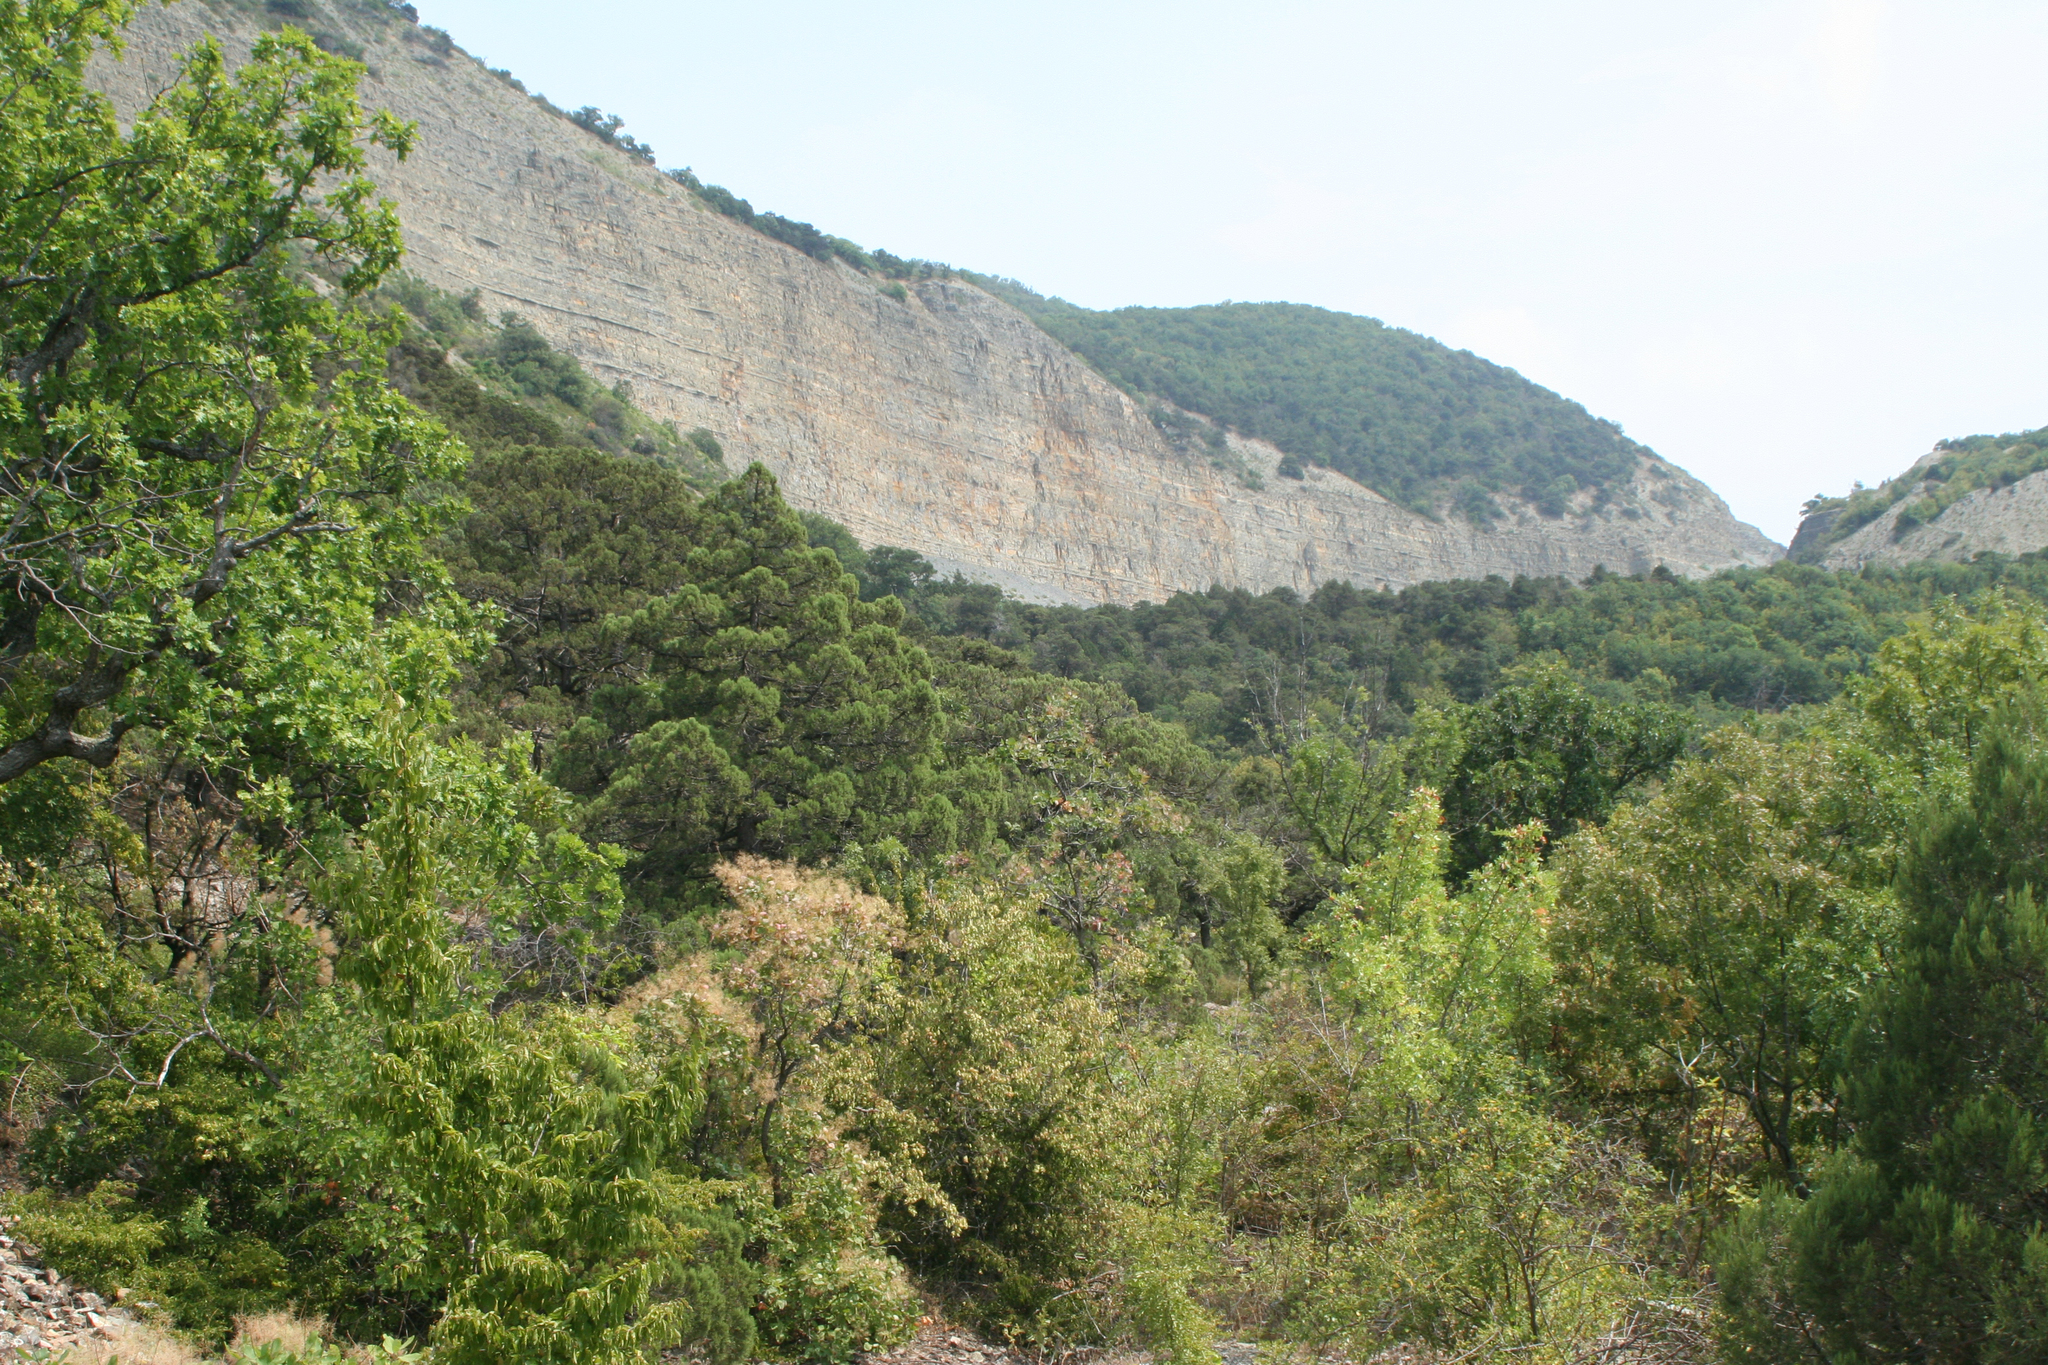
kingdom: Plantae
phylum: Tracheophyta
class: Magnoliopsida
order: Fagales
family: Fagaceae
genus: Quercus
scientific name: Quercus pubescens
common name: Downy oak
